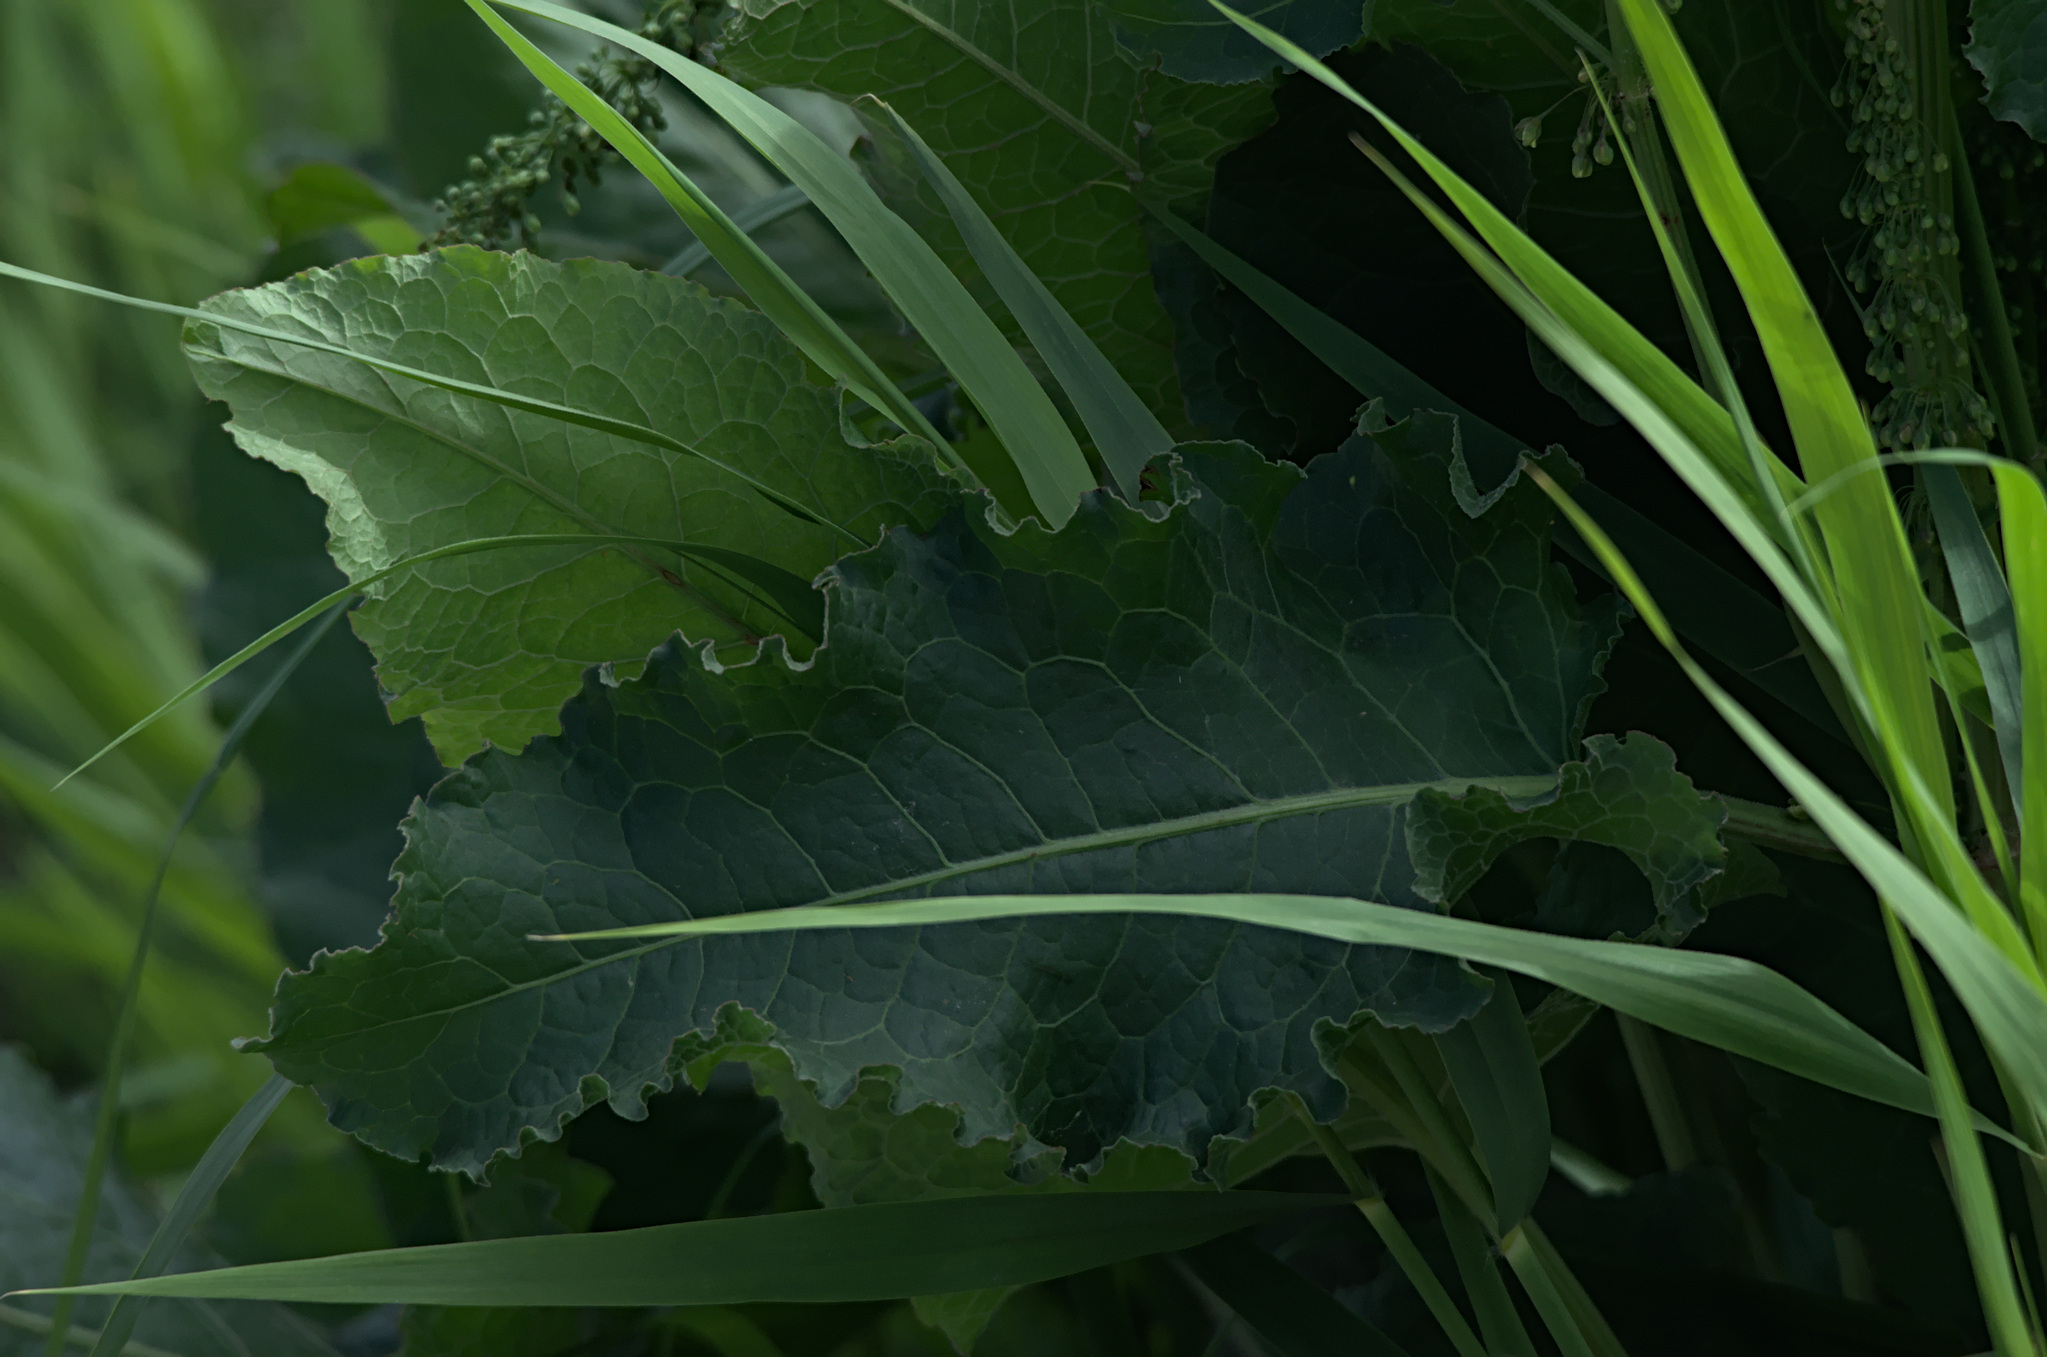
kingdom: Plantae
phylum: Tracheophyta
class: Magnoliopsida
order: Caryophyllales
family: Polygonaceae
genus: Rumex
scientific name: Rumex confertus
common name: Russian dock
